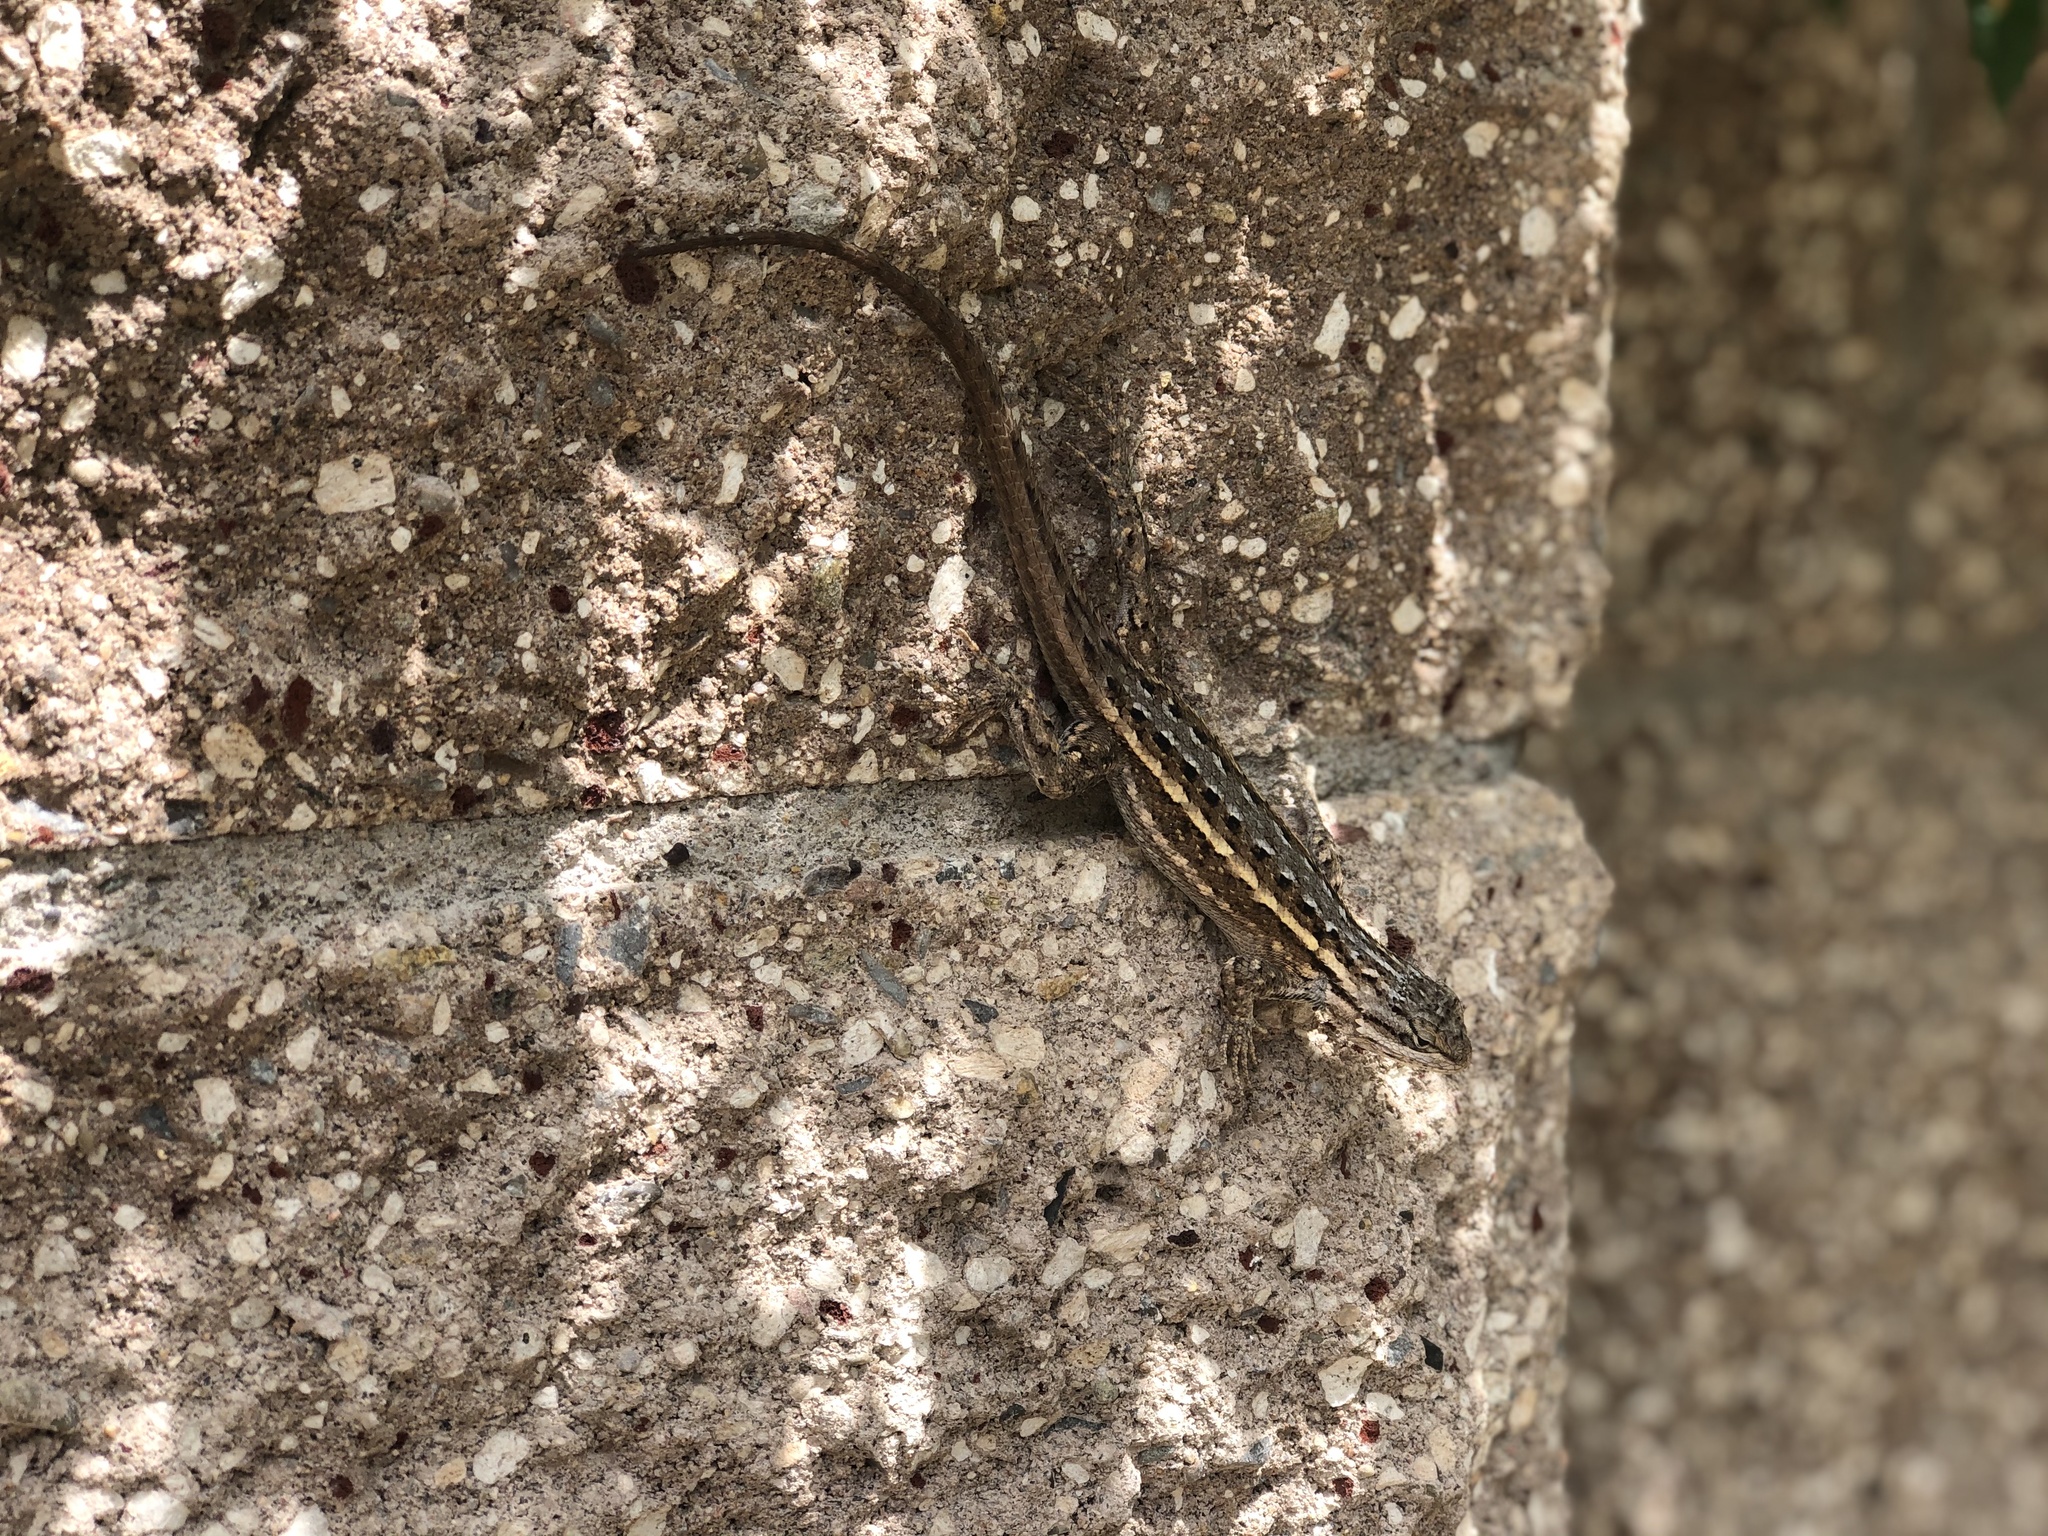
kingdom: Animalia
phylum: Chordata
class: Squamata
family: Phrynosomatidae
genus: Sceloporus
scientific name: Sceloporus cowlesi
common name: White sands prairie lizard
